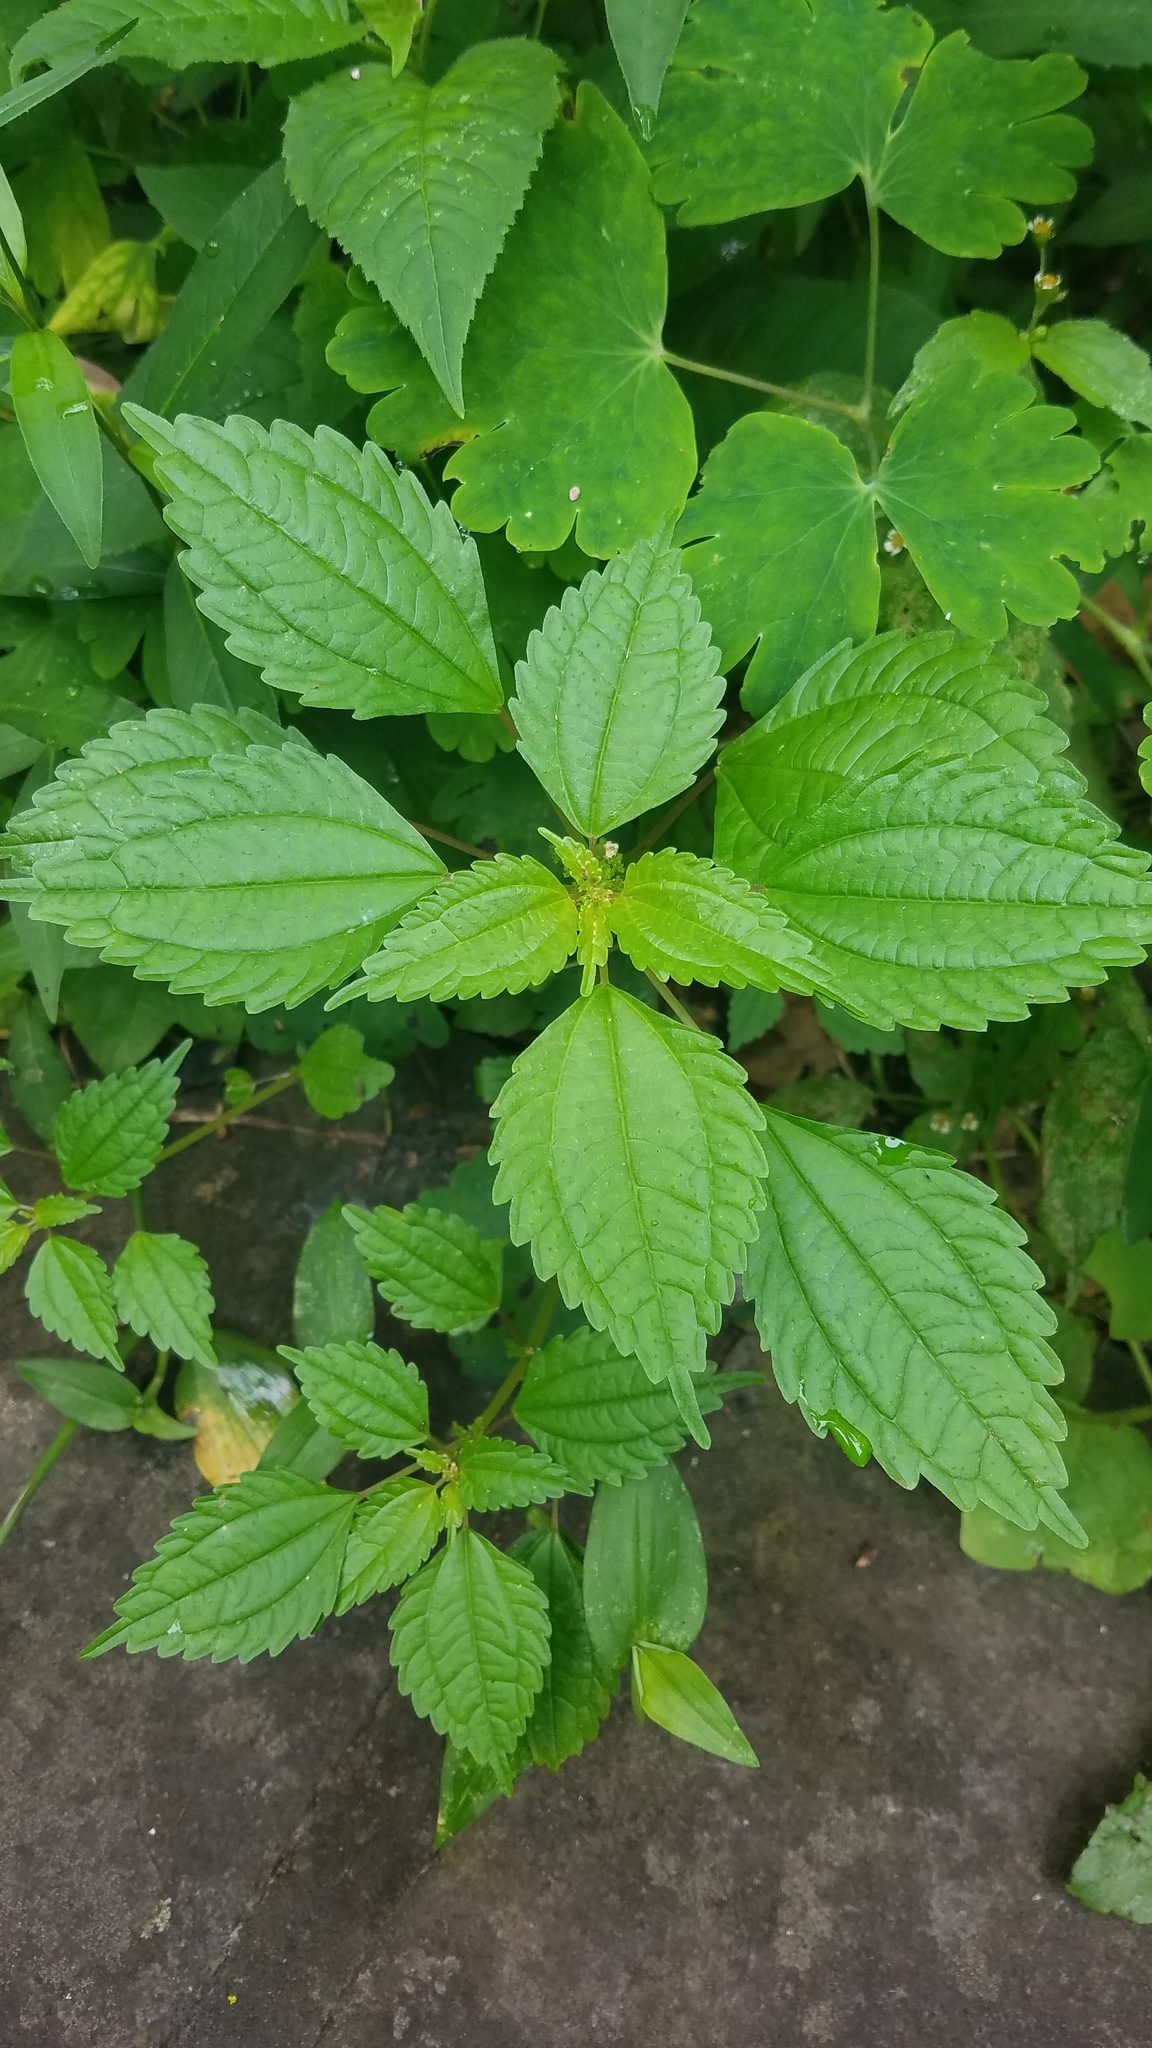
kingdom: Plantae
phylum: Tracheophyta
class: Magnoliopsida
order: Rosales
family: Urticaceae
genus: Pilea
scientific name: Pilea pumila
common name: Clearweed
